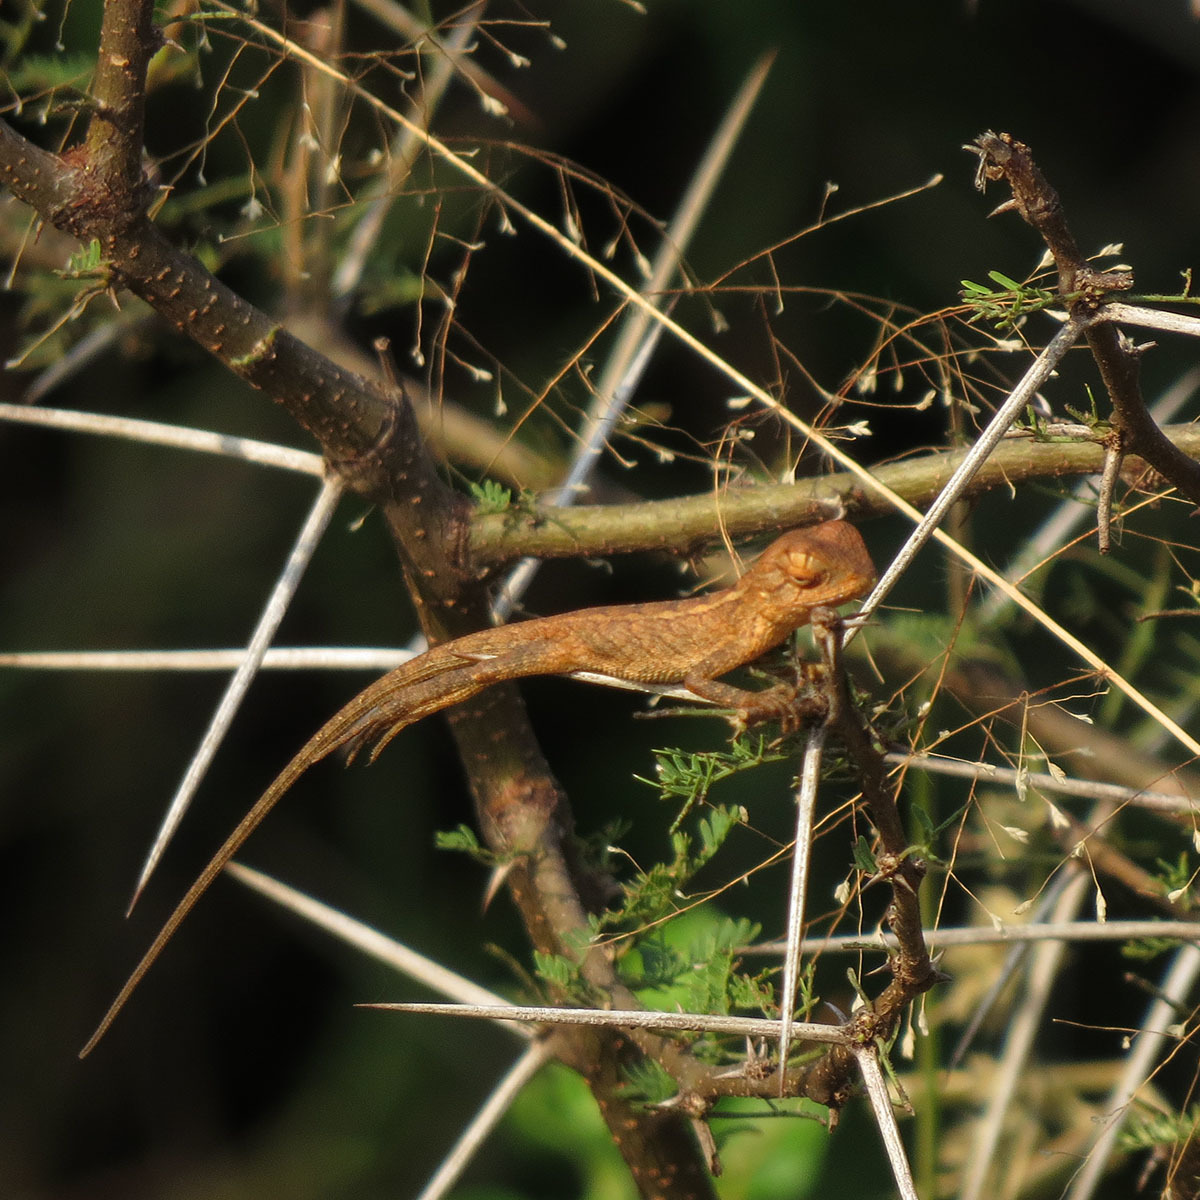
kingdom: Animalia
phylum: Chordata
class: Squamata
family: Agamidae
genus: Calotes
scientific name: Calotes versicolor
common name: Oriental garden lizard
